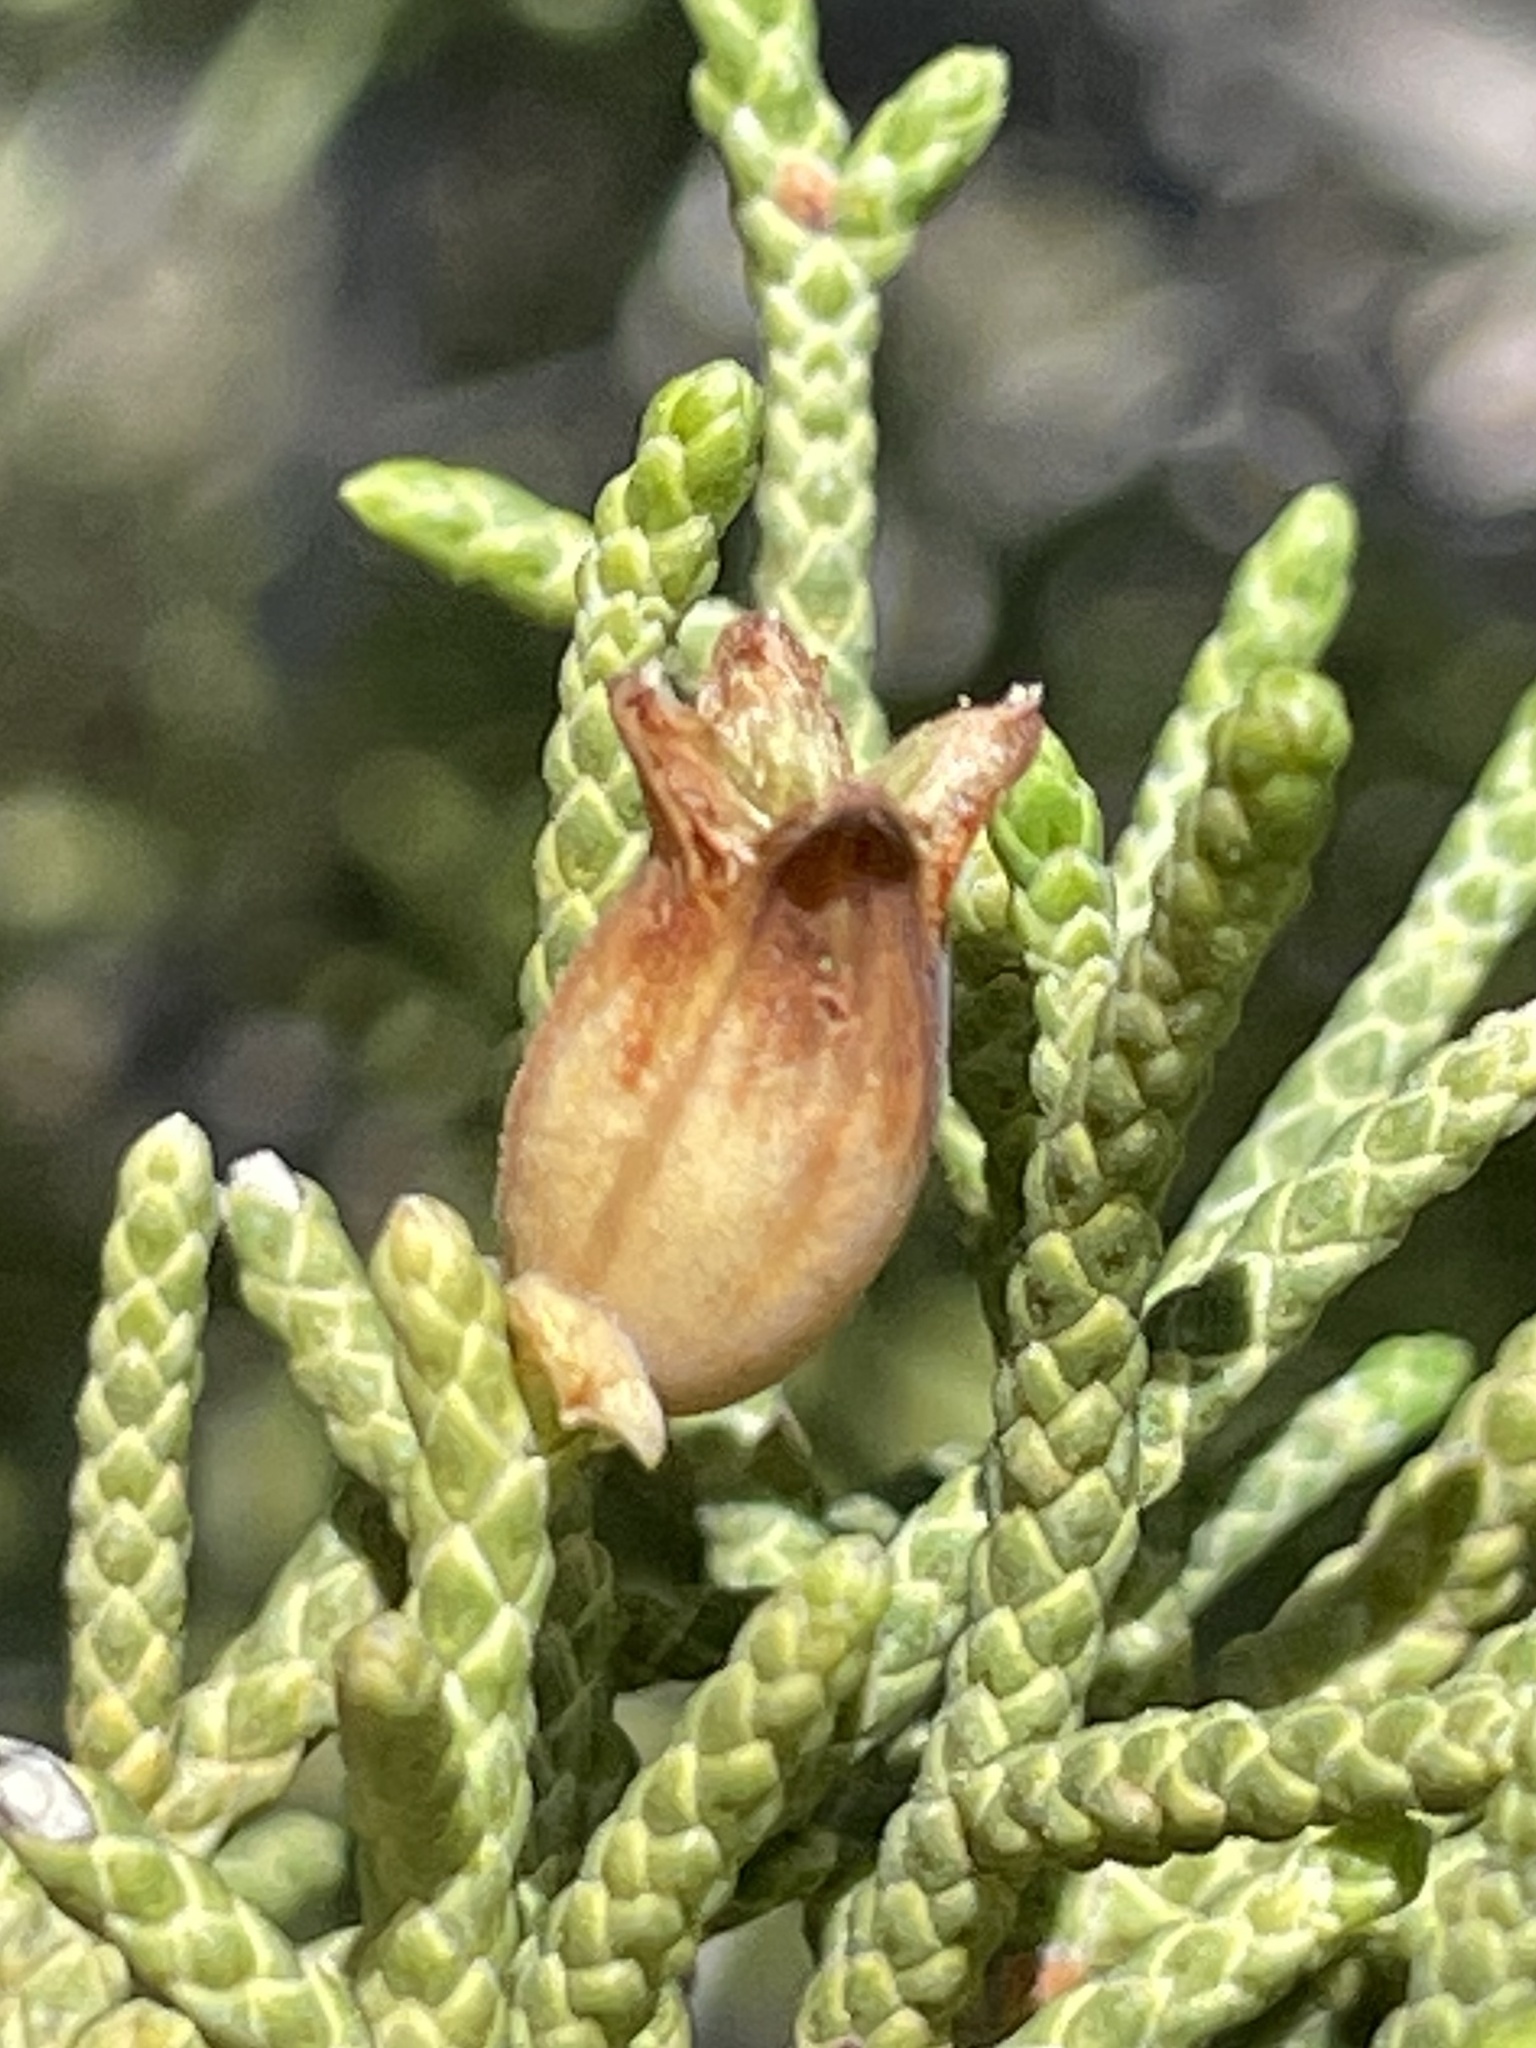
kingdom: Animalia
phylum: Arthropoda
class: Insecta
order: Diptera
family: Cecidomyiidae
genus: Walshomyia
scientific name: Walshomyia juniperina
